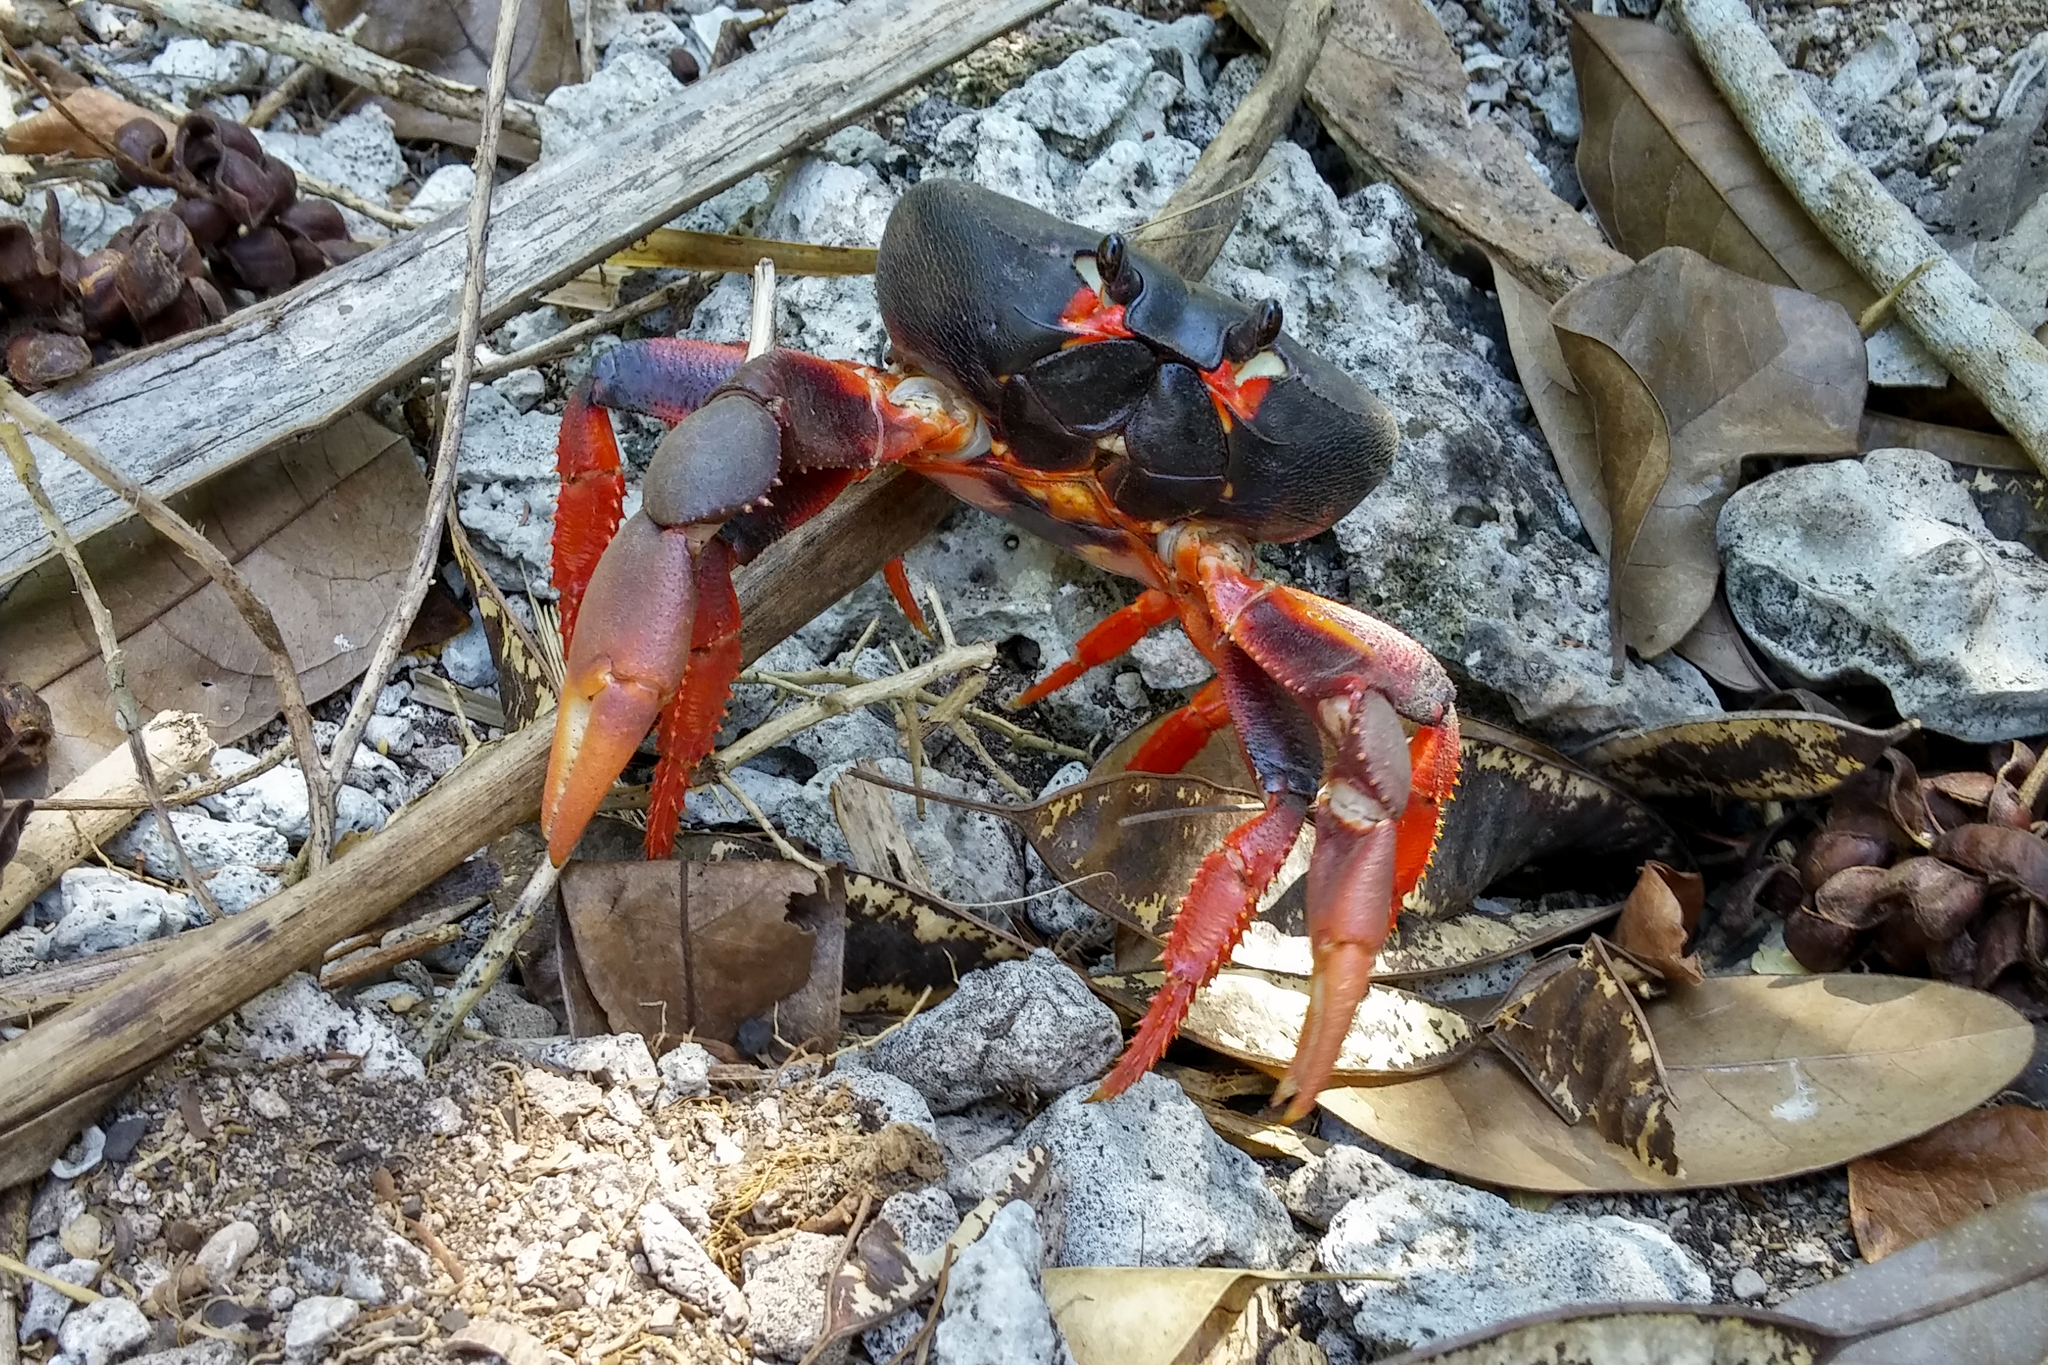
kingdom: Animalia
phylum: Arthropoda
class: Malacostraca
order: Decapoda
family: Gecarcinidae
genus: Gecarcinus
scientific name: Gecarcinus ruricola
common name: Black land crab
